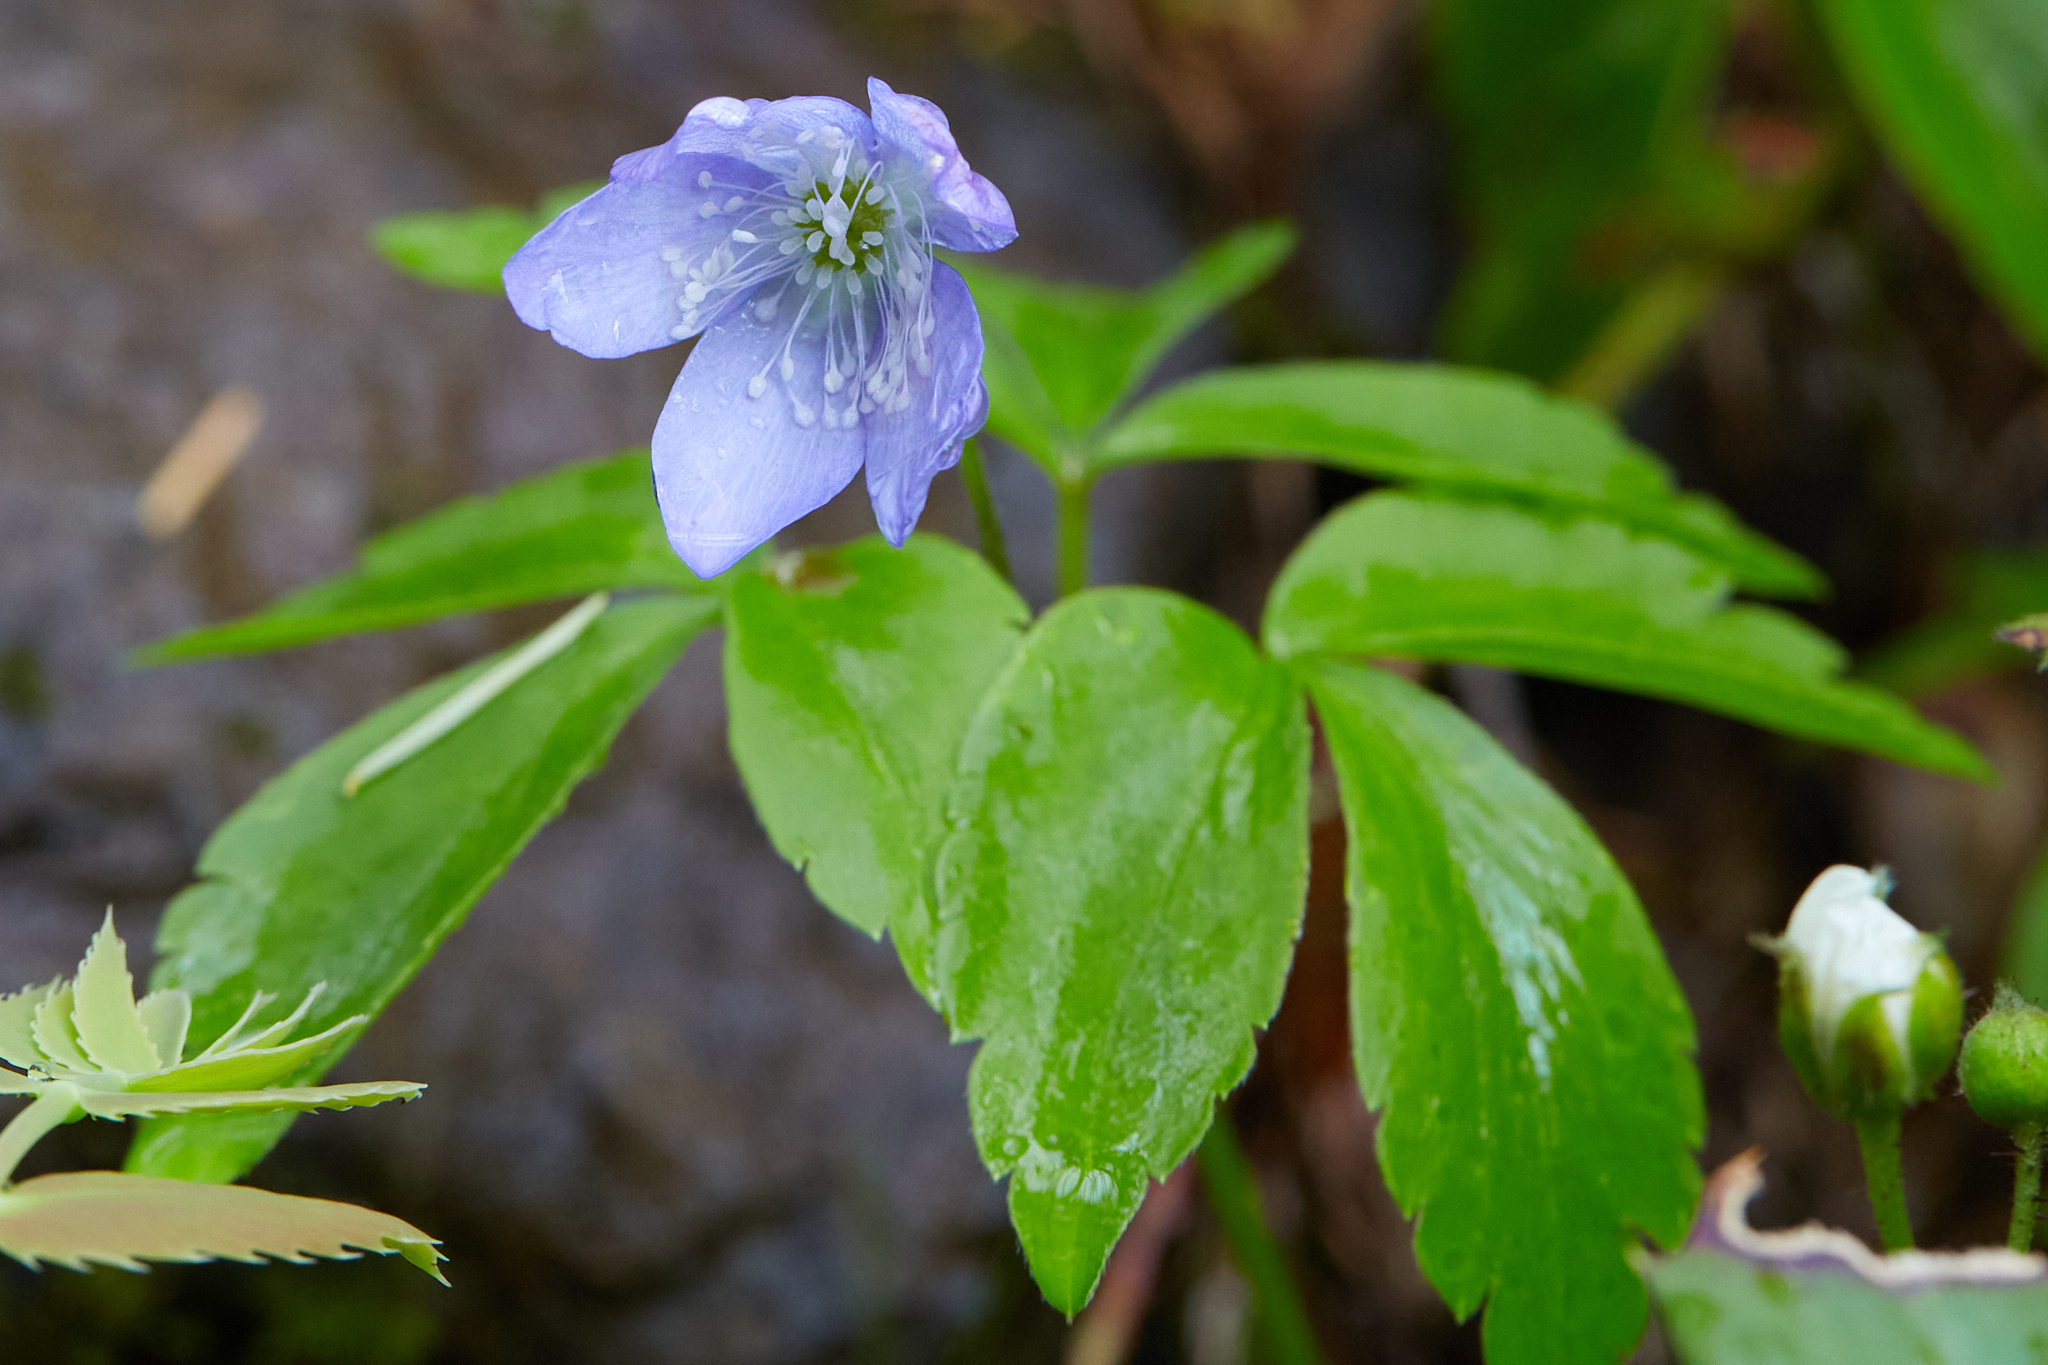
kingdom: Plantae
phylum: Tracheophyta
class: Magnoliopsida
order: Ranunculales
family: Ranunculaceae
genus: Anemone
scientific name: Anemone oregana
